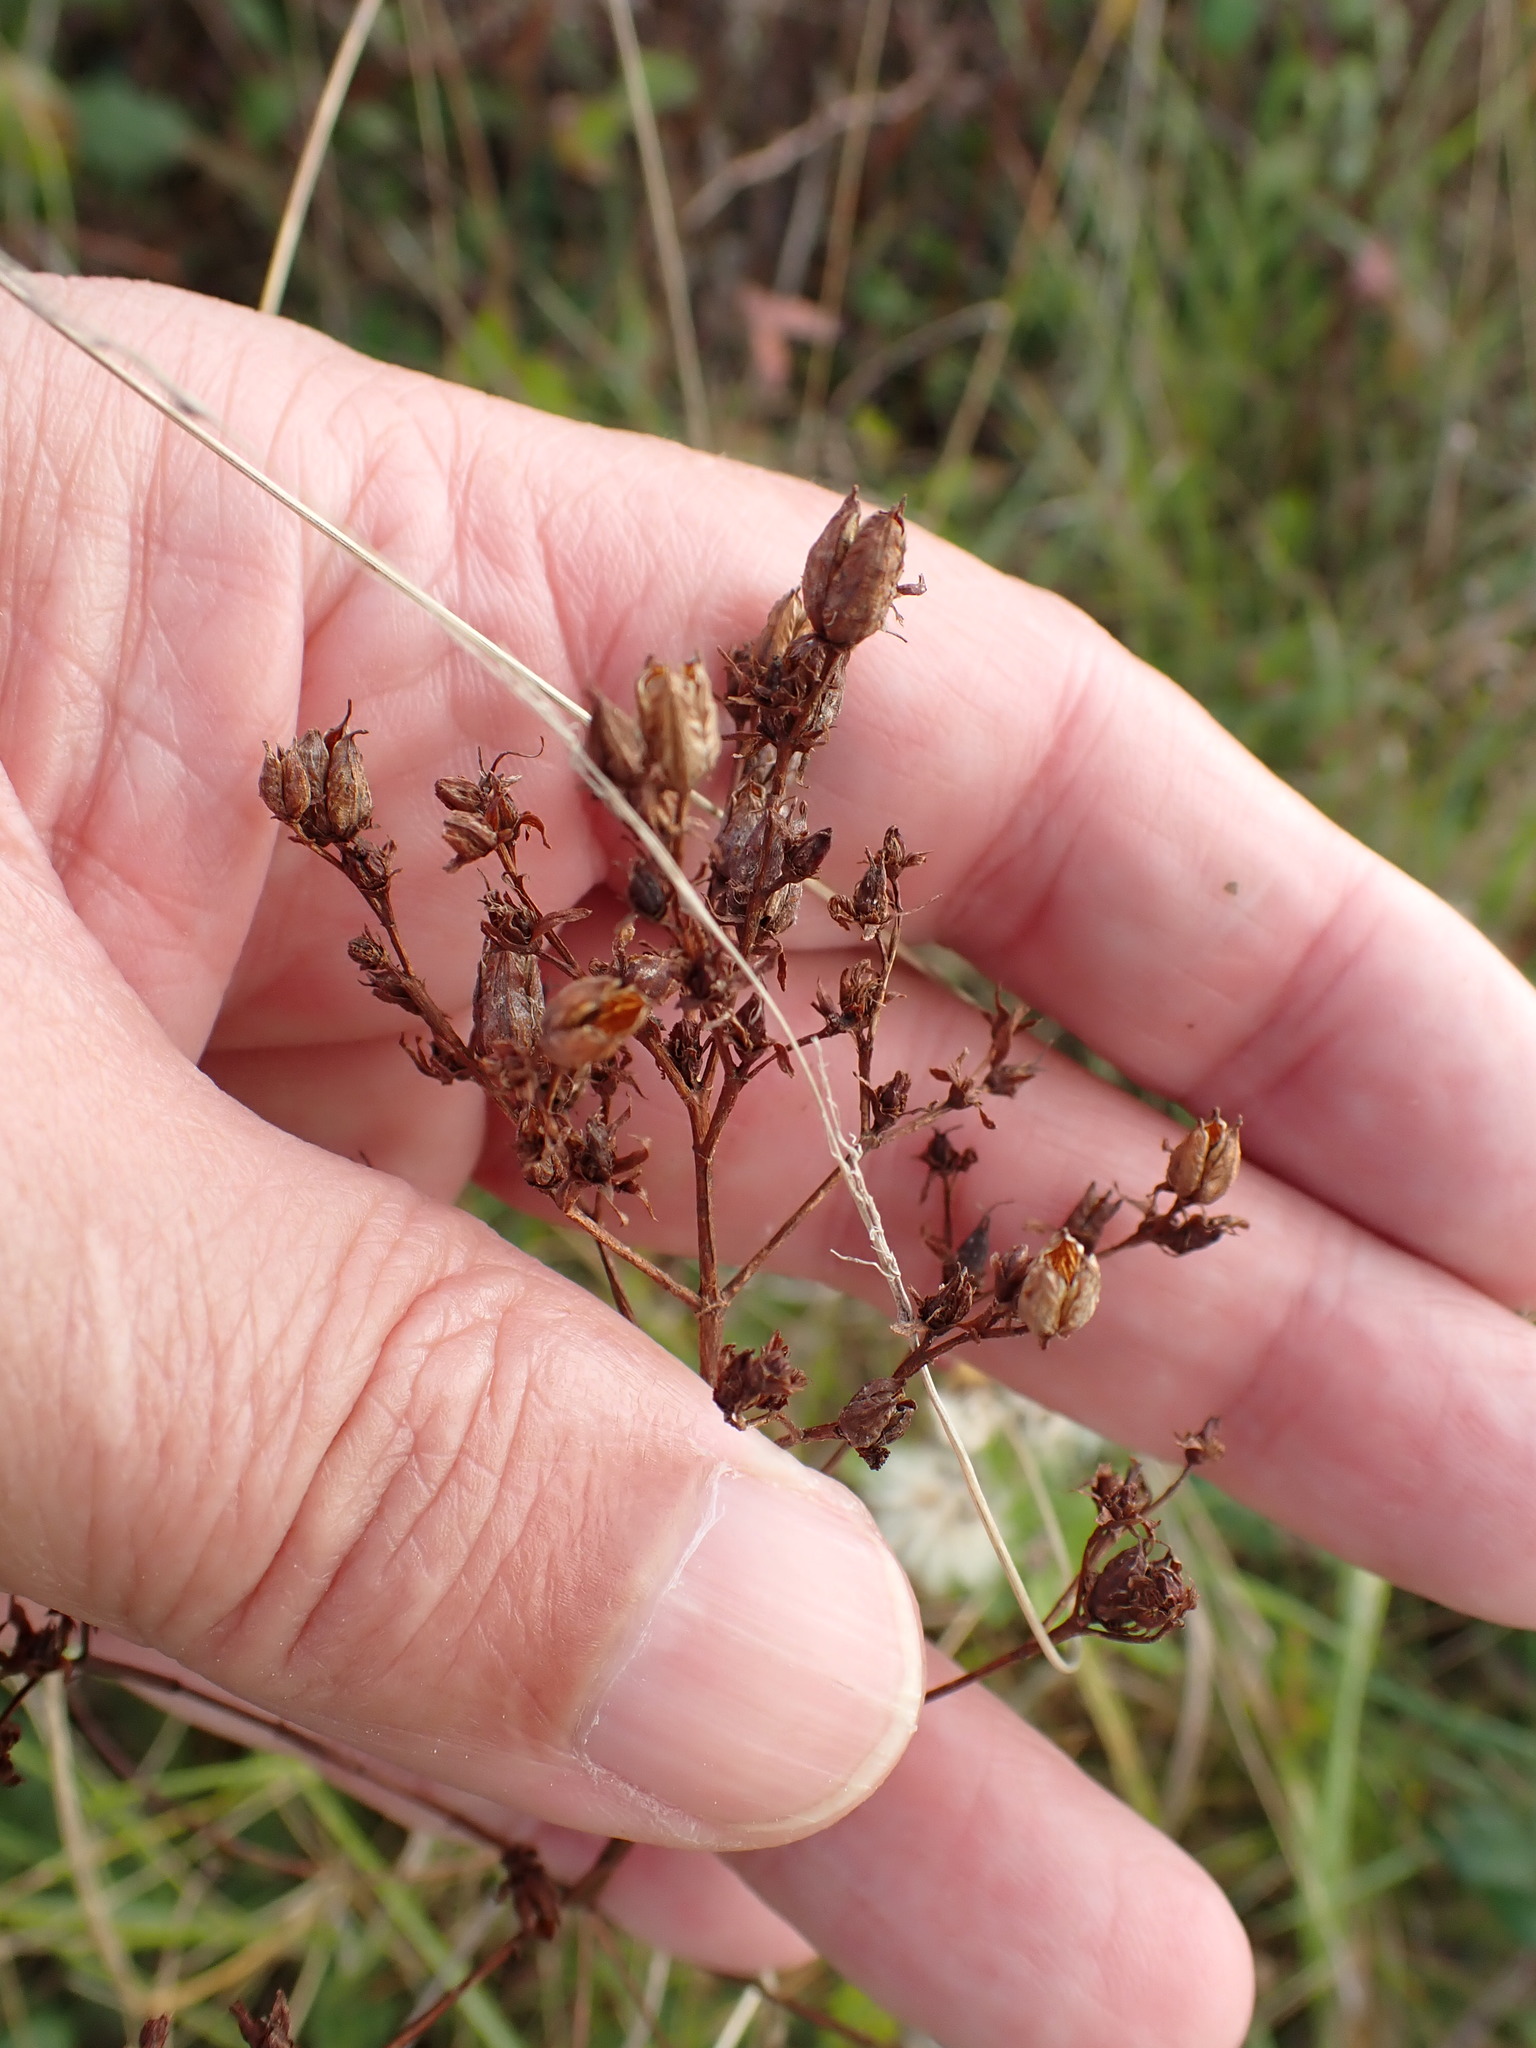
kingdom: Plantae
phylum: Tracheophyta
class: Magnoliopsida
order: Malpighiales
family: Hypericaceae
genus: Hypericum
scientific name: Hypericum perforatum
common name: Common st. johnswort
